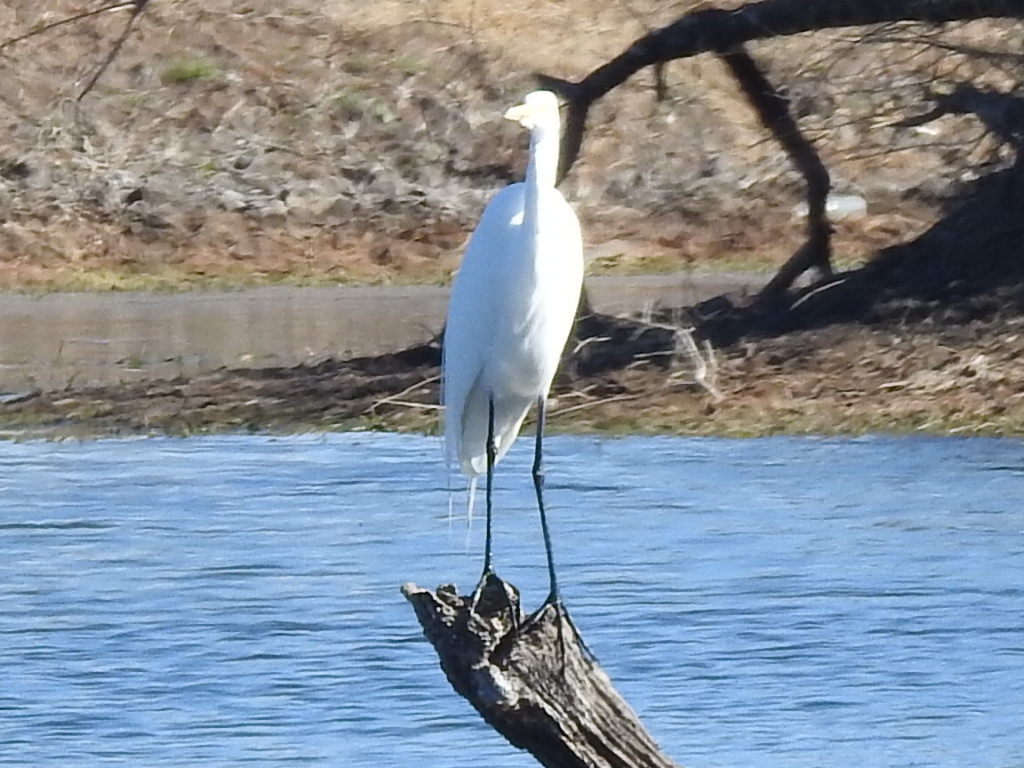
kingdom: Animalia
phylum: Chordata
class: Aves
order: Pelecaniformes
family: Ardeidae
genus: Ardea
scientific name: Ardea alba
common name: Great egret
